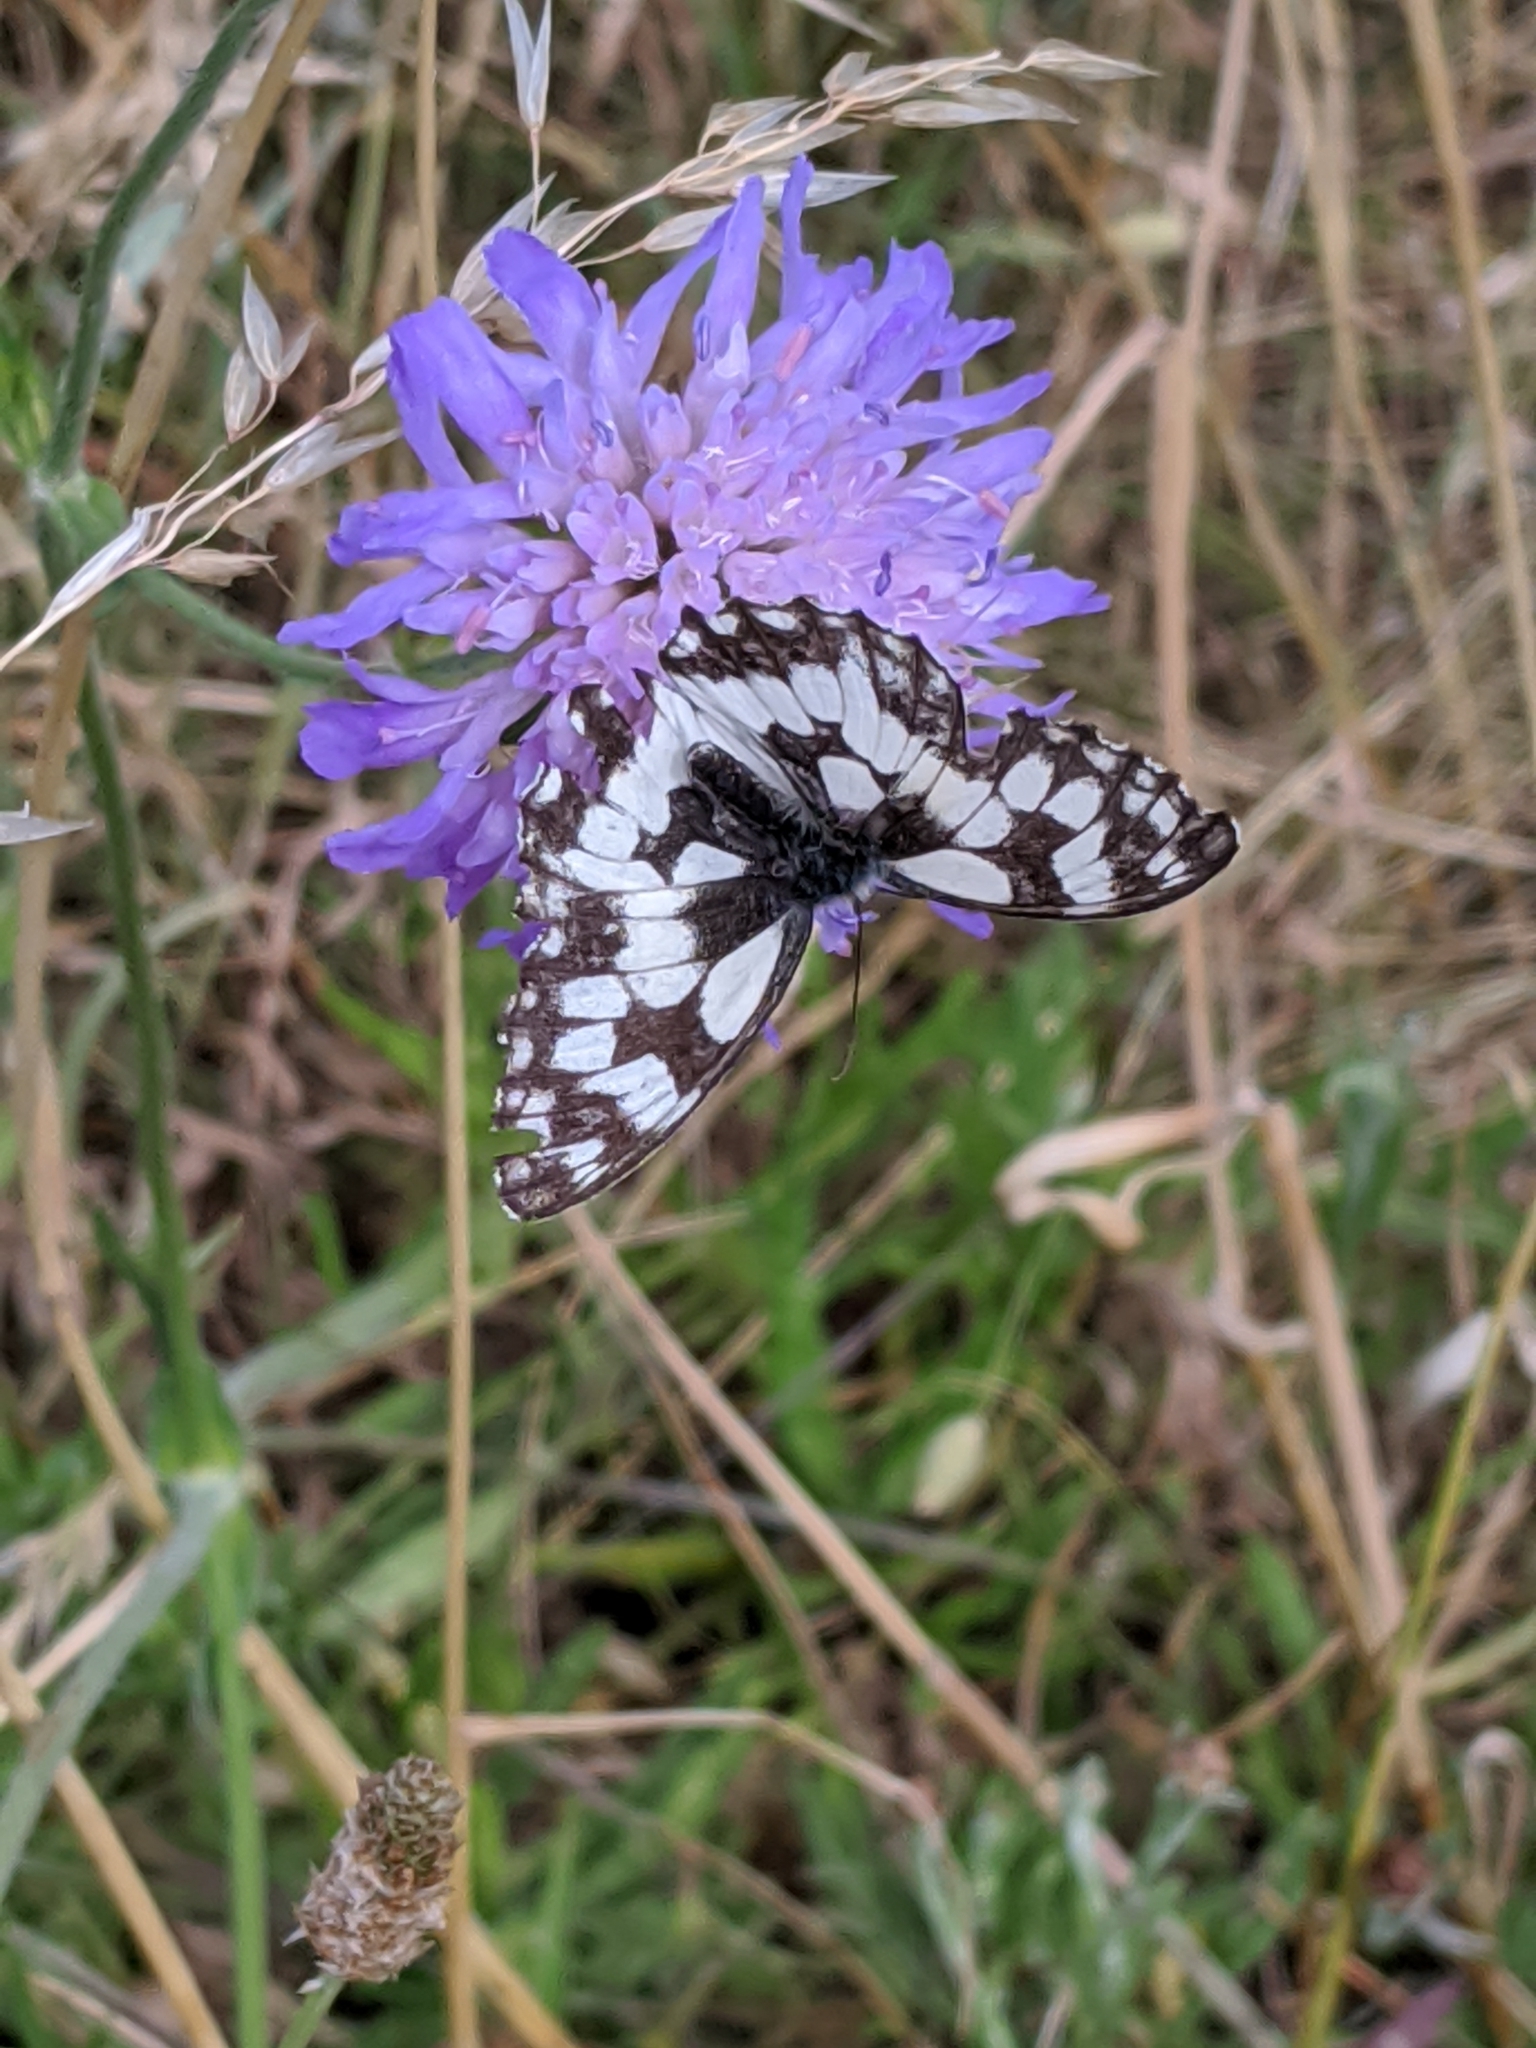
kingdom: Animalia
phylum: Arthropoda
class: Insecta
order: Lepidoptera
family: Nymphalidae
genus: Melanargia
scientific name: Melanargia galathea
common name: Marbled white
